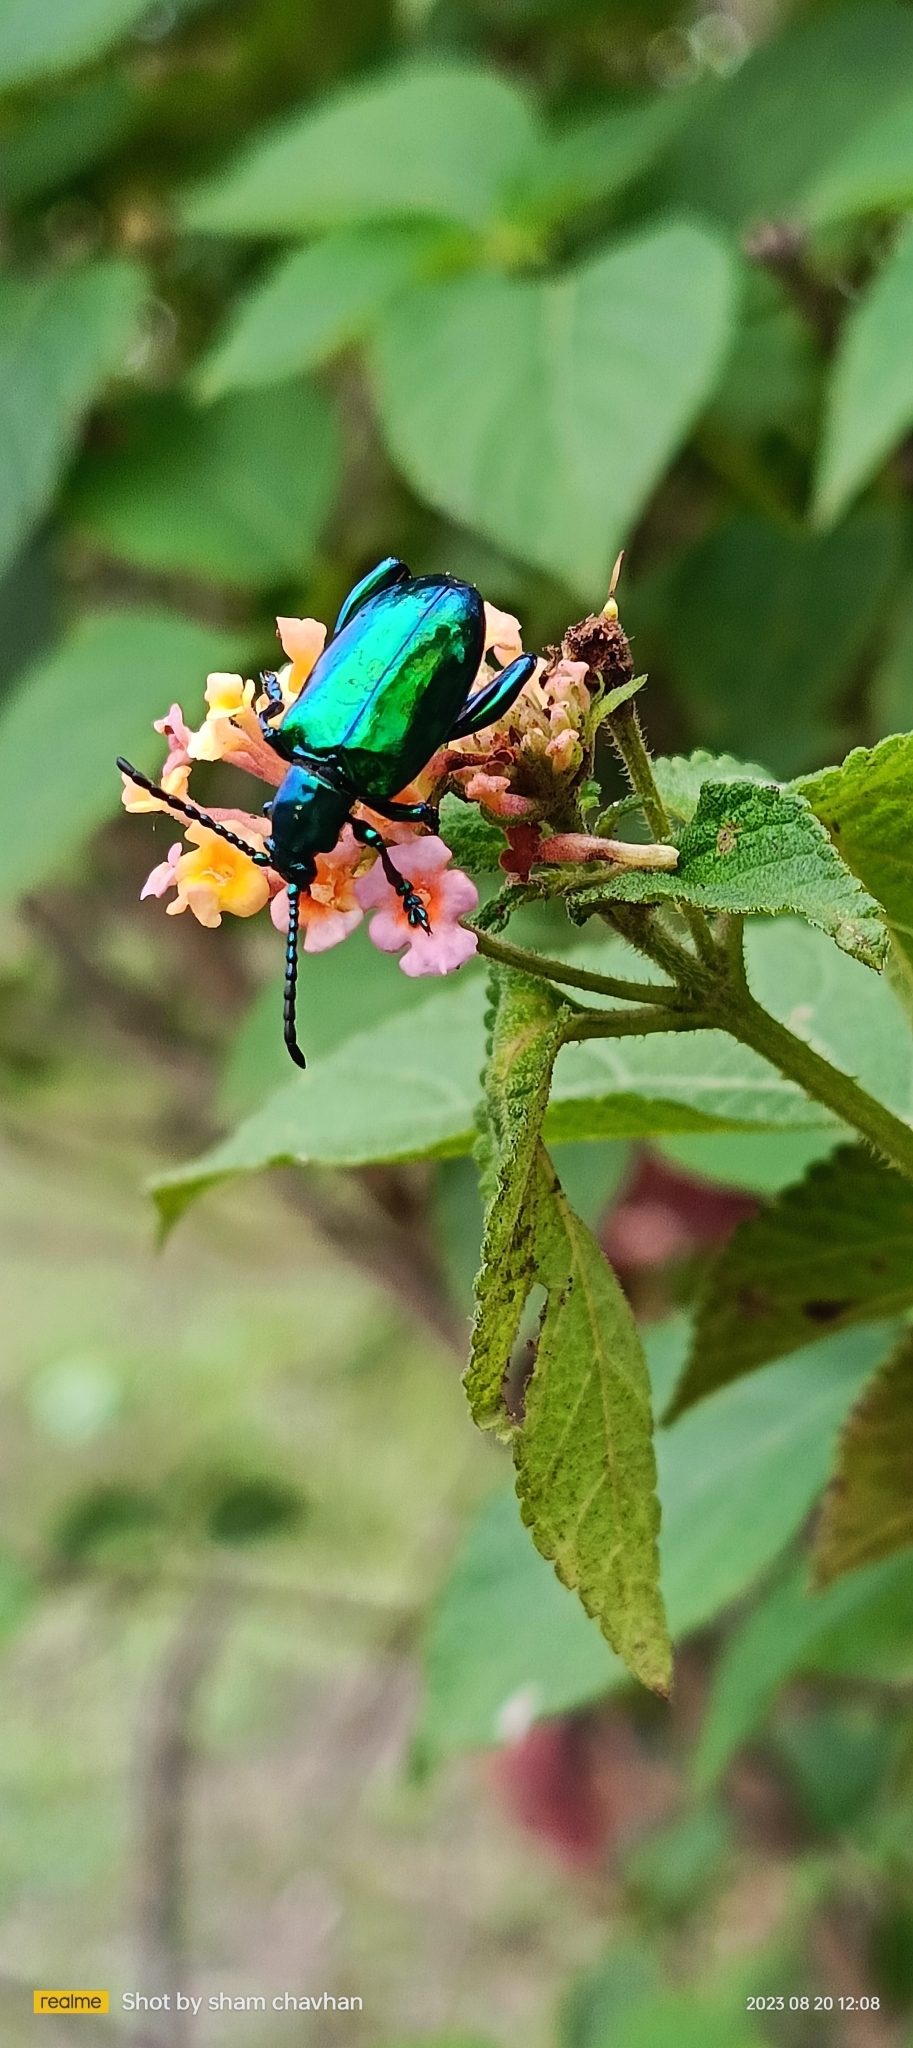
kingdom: Animalia
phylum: Arthropoda
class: Insecta
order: Coleoptera
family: Chrysomelidae
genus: Sagra
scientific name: Sagra femorata
